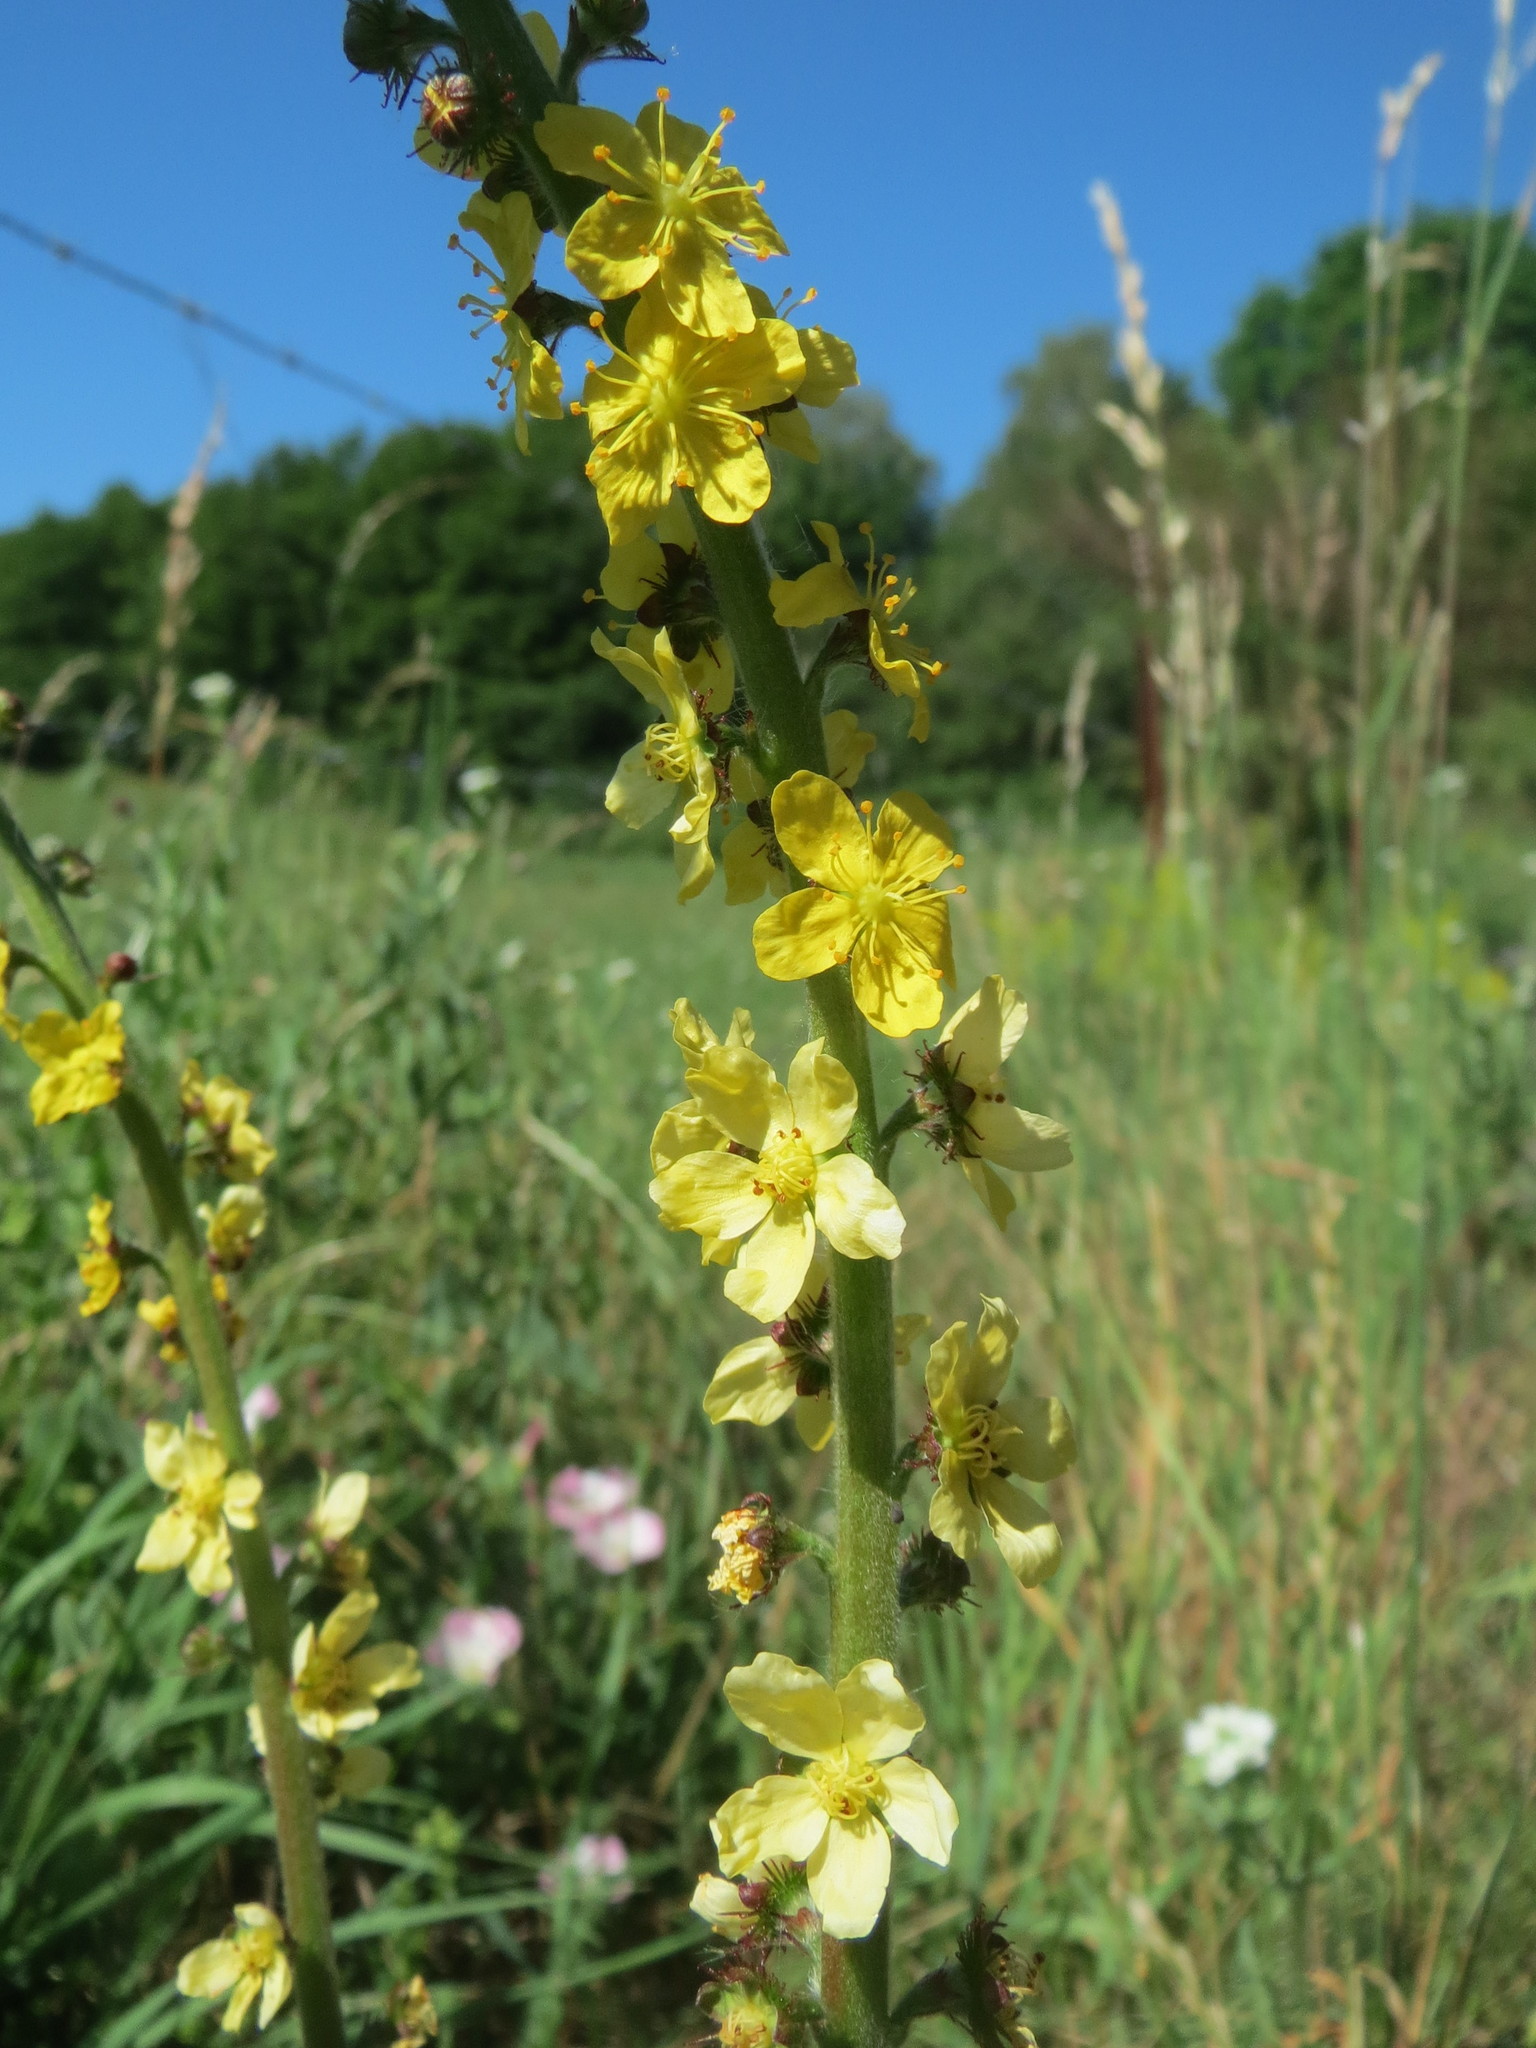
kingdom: Plantae
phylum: Tracheophyta
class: Magnoliopsida
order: Rosales
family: Rosaceae
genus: Agrimonia
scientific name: Agrimonia eupatoria
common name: Agrimony
